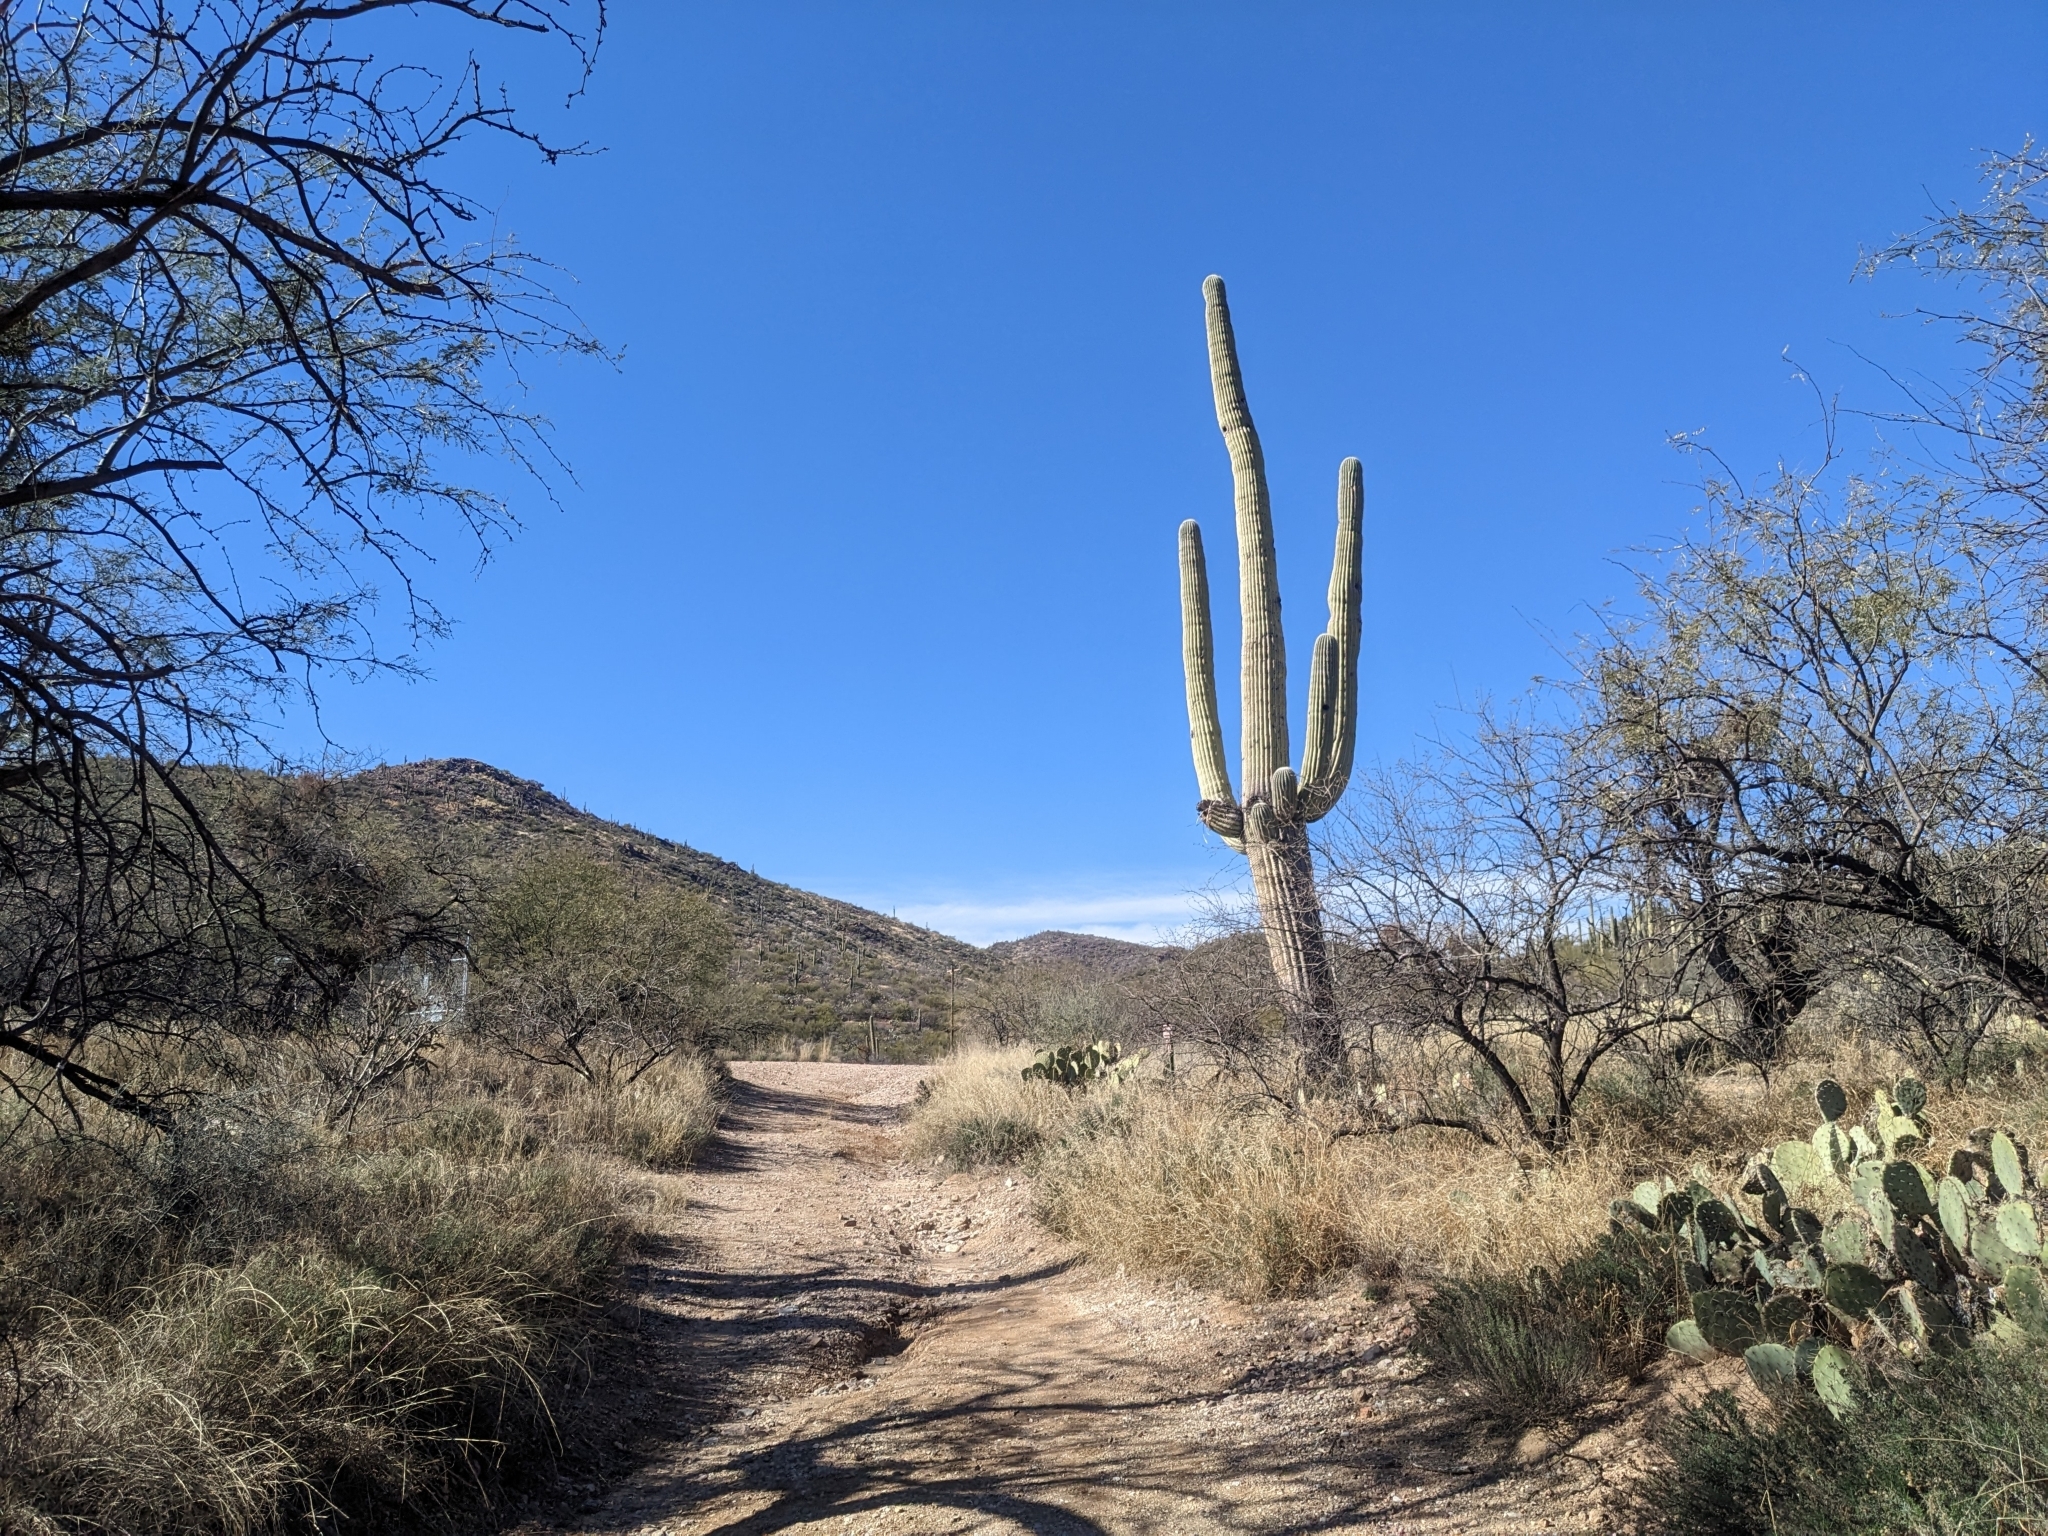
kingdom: Plantae
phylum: Tracheophyta
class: Magnoliopsida
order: Caryophyllales
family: Cactaceae
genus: Carnegiea
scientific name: Carnegiea gigantea
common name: Saguaro
